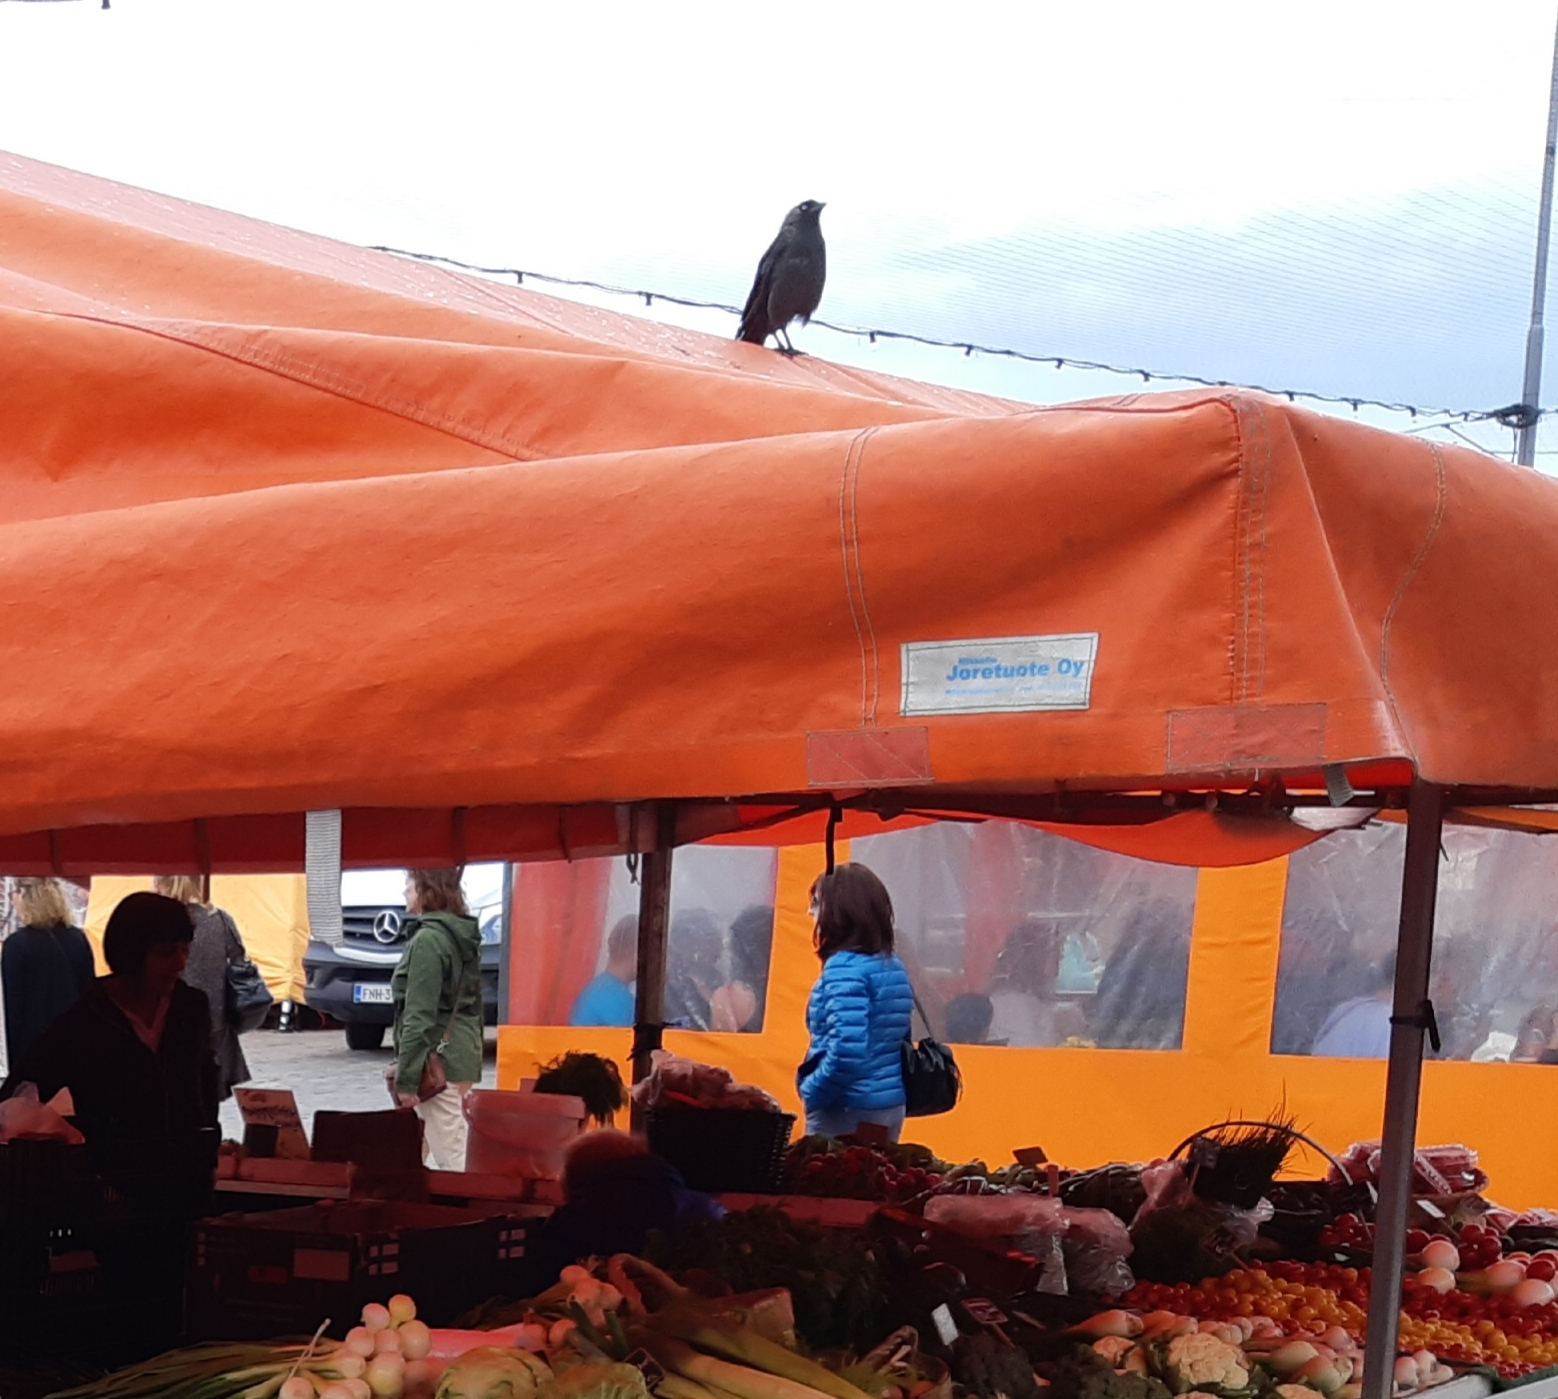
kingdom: Animalia
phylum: Chordata
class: Aves
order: Passeriformes
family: Corvidae
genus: Coloeus
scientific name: Coloeus monedula
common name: Western jackdaw
